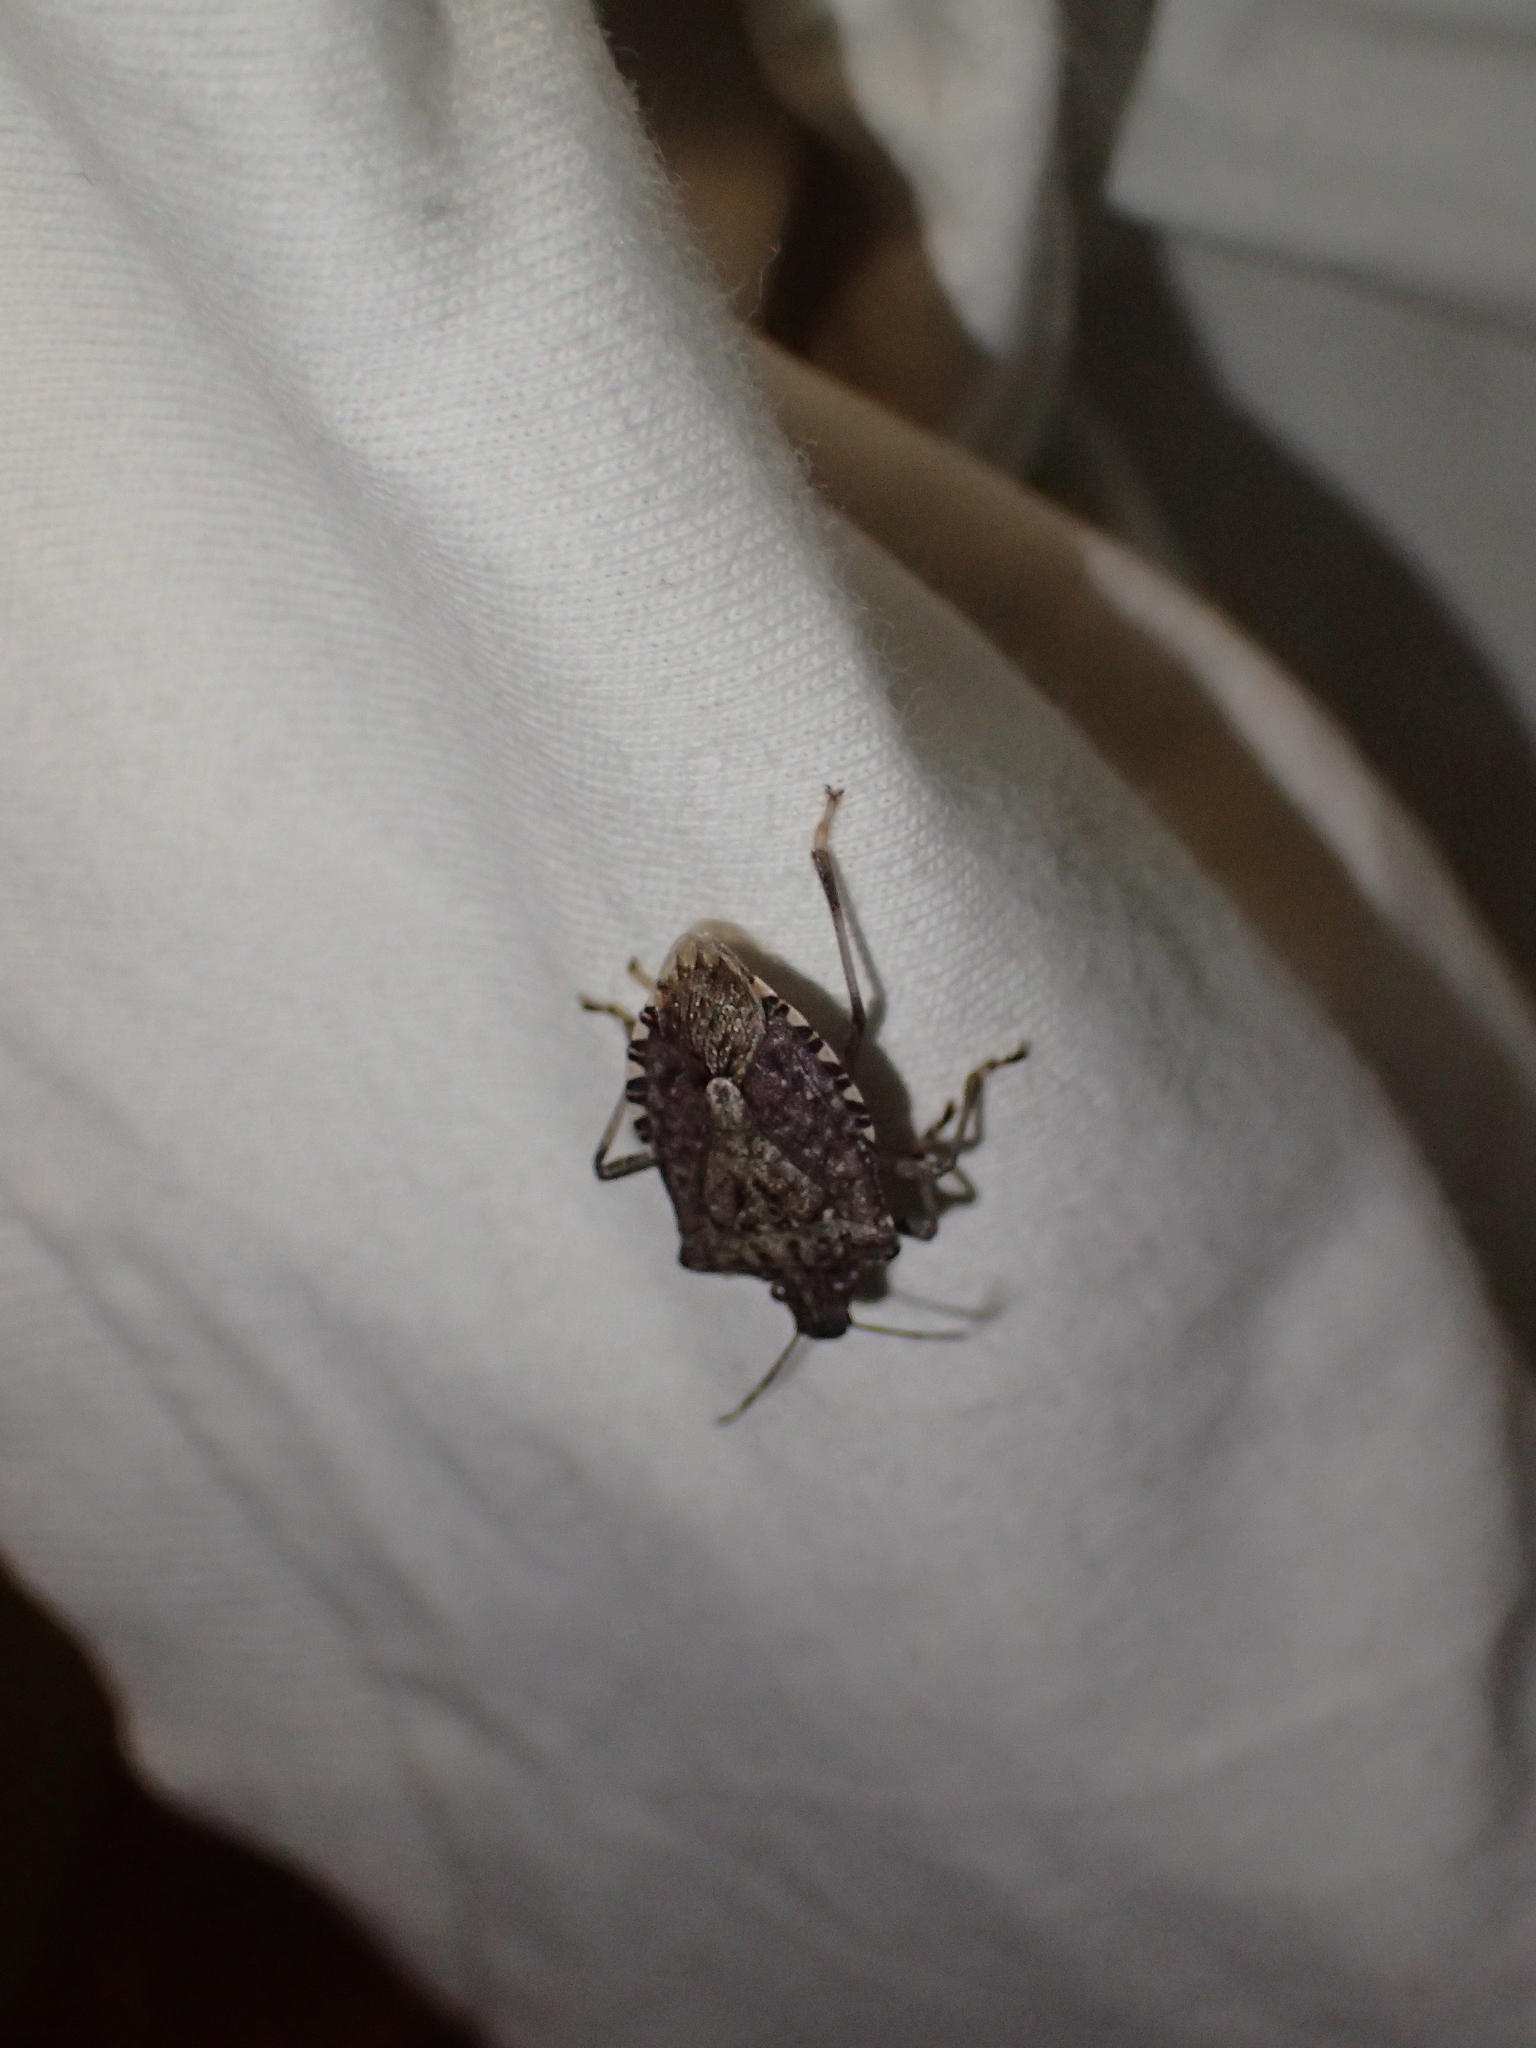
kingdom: Animalia
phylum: Arthropoda
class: Insecta
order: Hemiptera
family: Pentatomidae
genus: Halyomorpha
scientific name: Halyomorpha halys
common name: Brown marmorated stink bug
